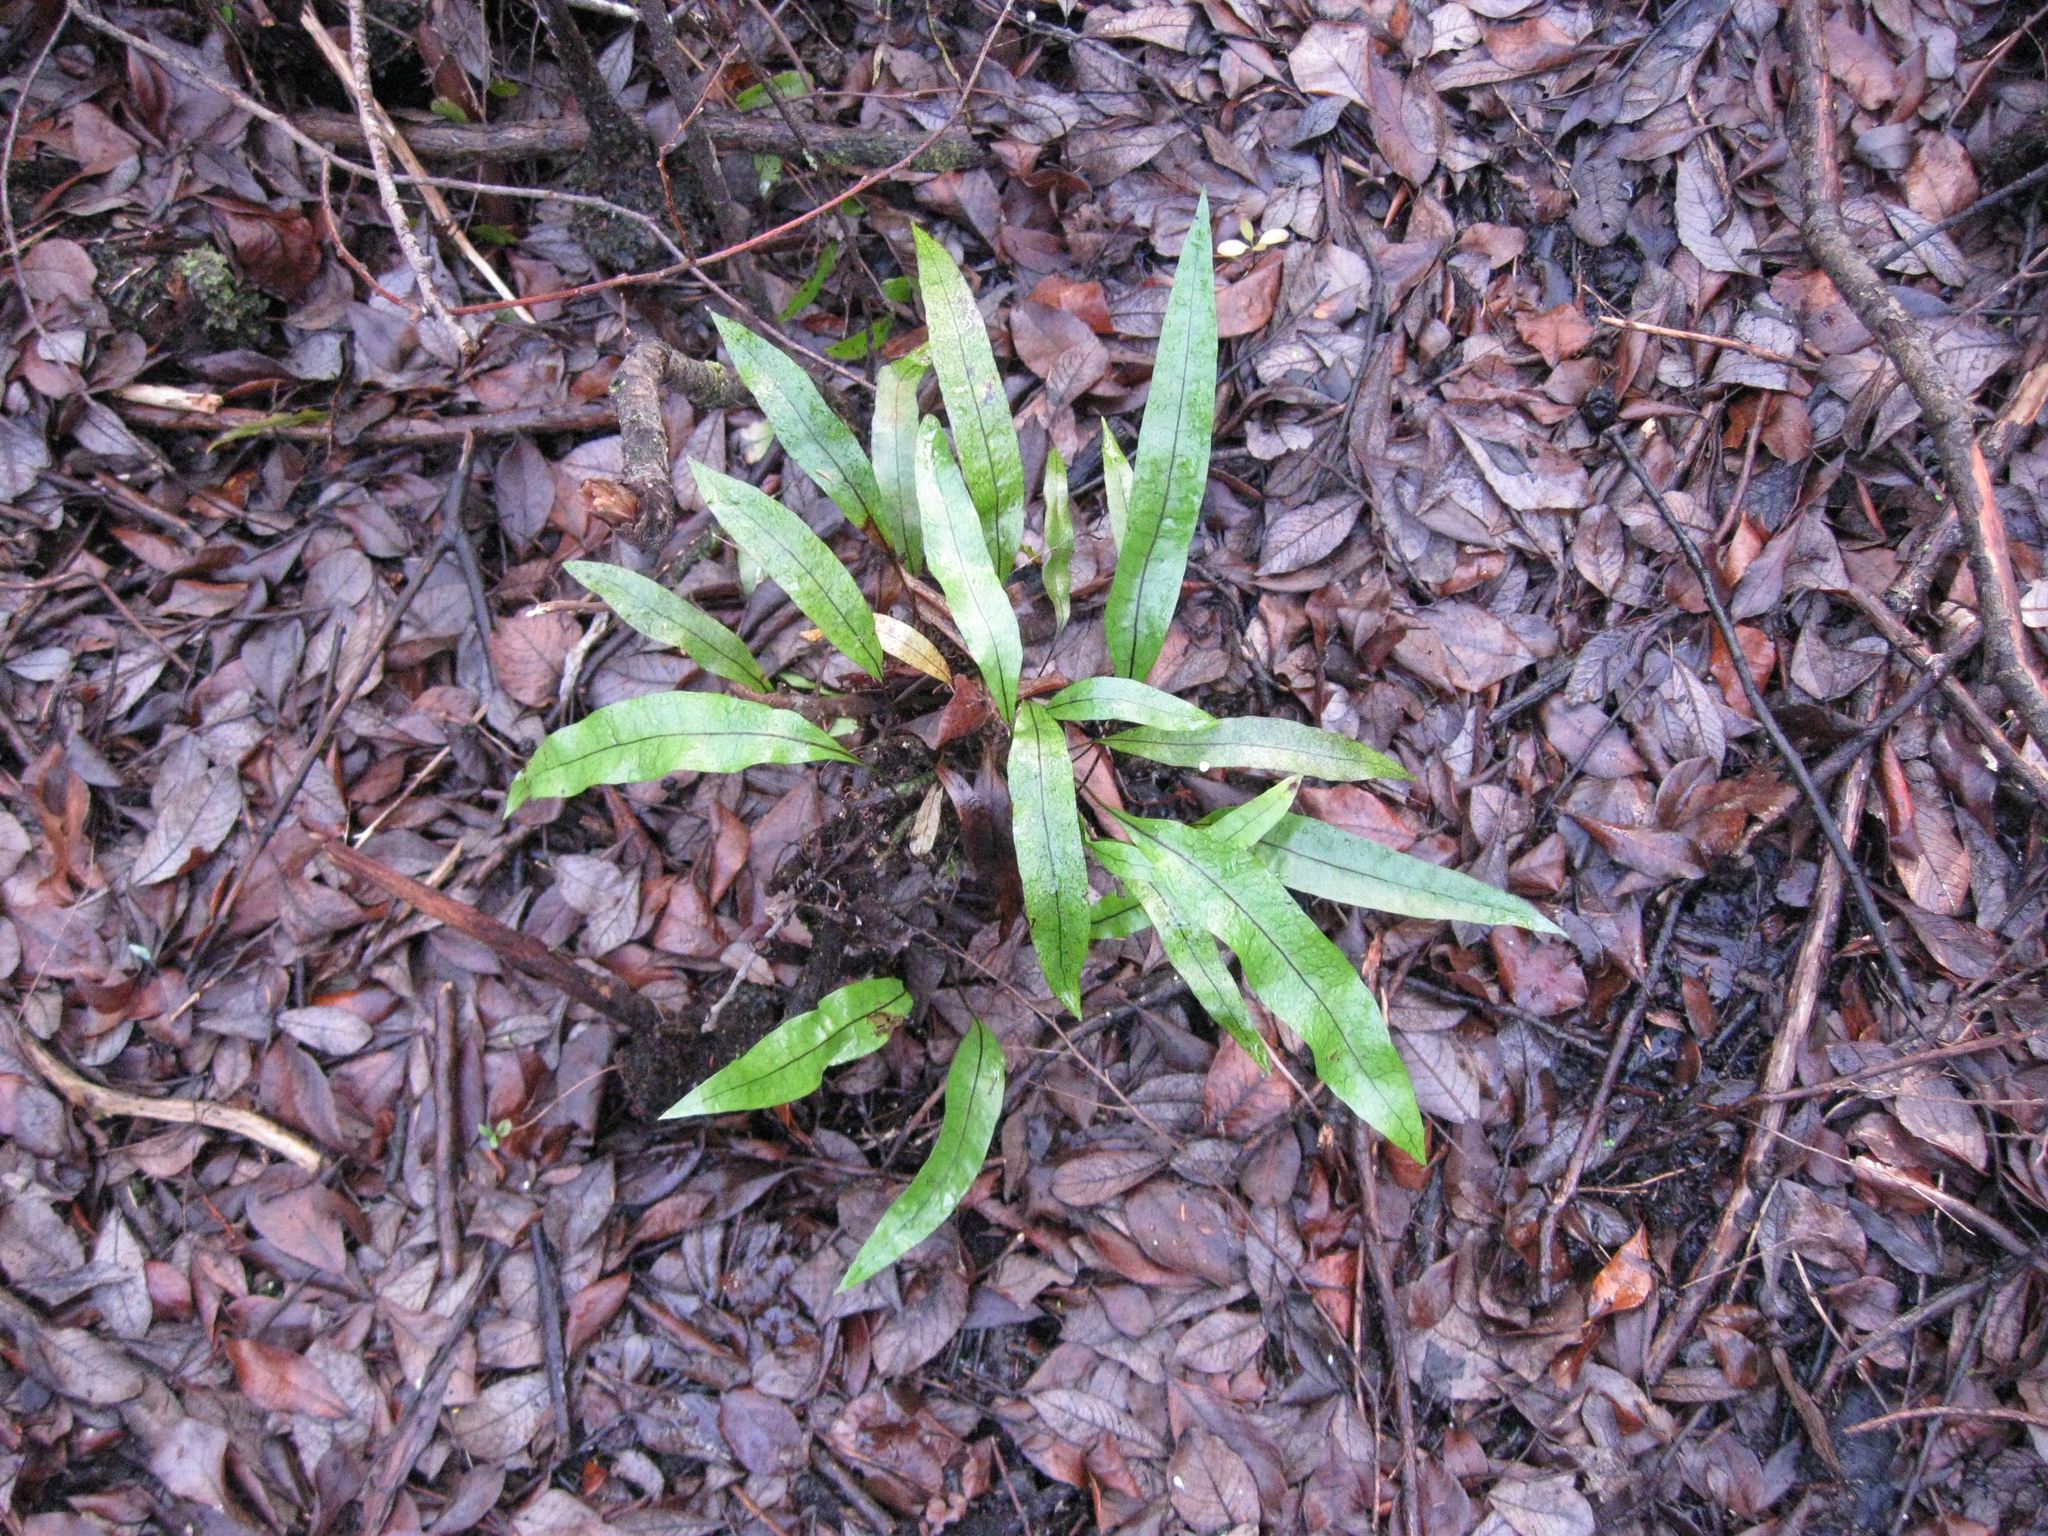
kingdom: Plantae
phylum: Tracheophyta
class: Polypodiopsida
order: Polypodiales
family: Polypodiaceae
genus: Lecanopteris
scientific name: Lecanopteris pustulata
